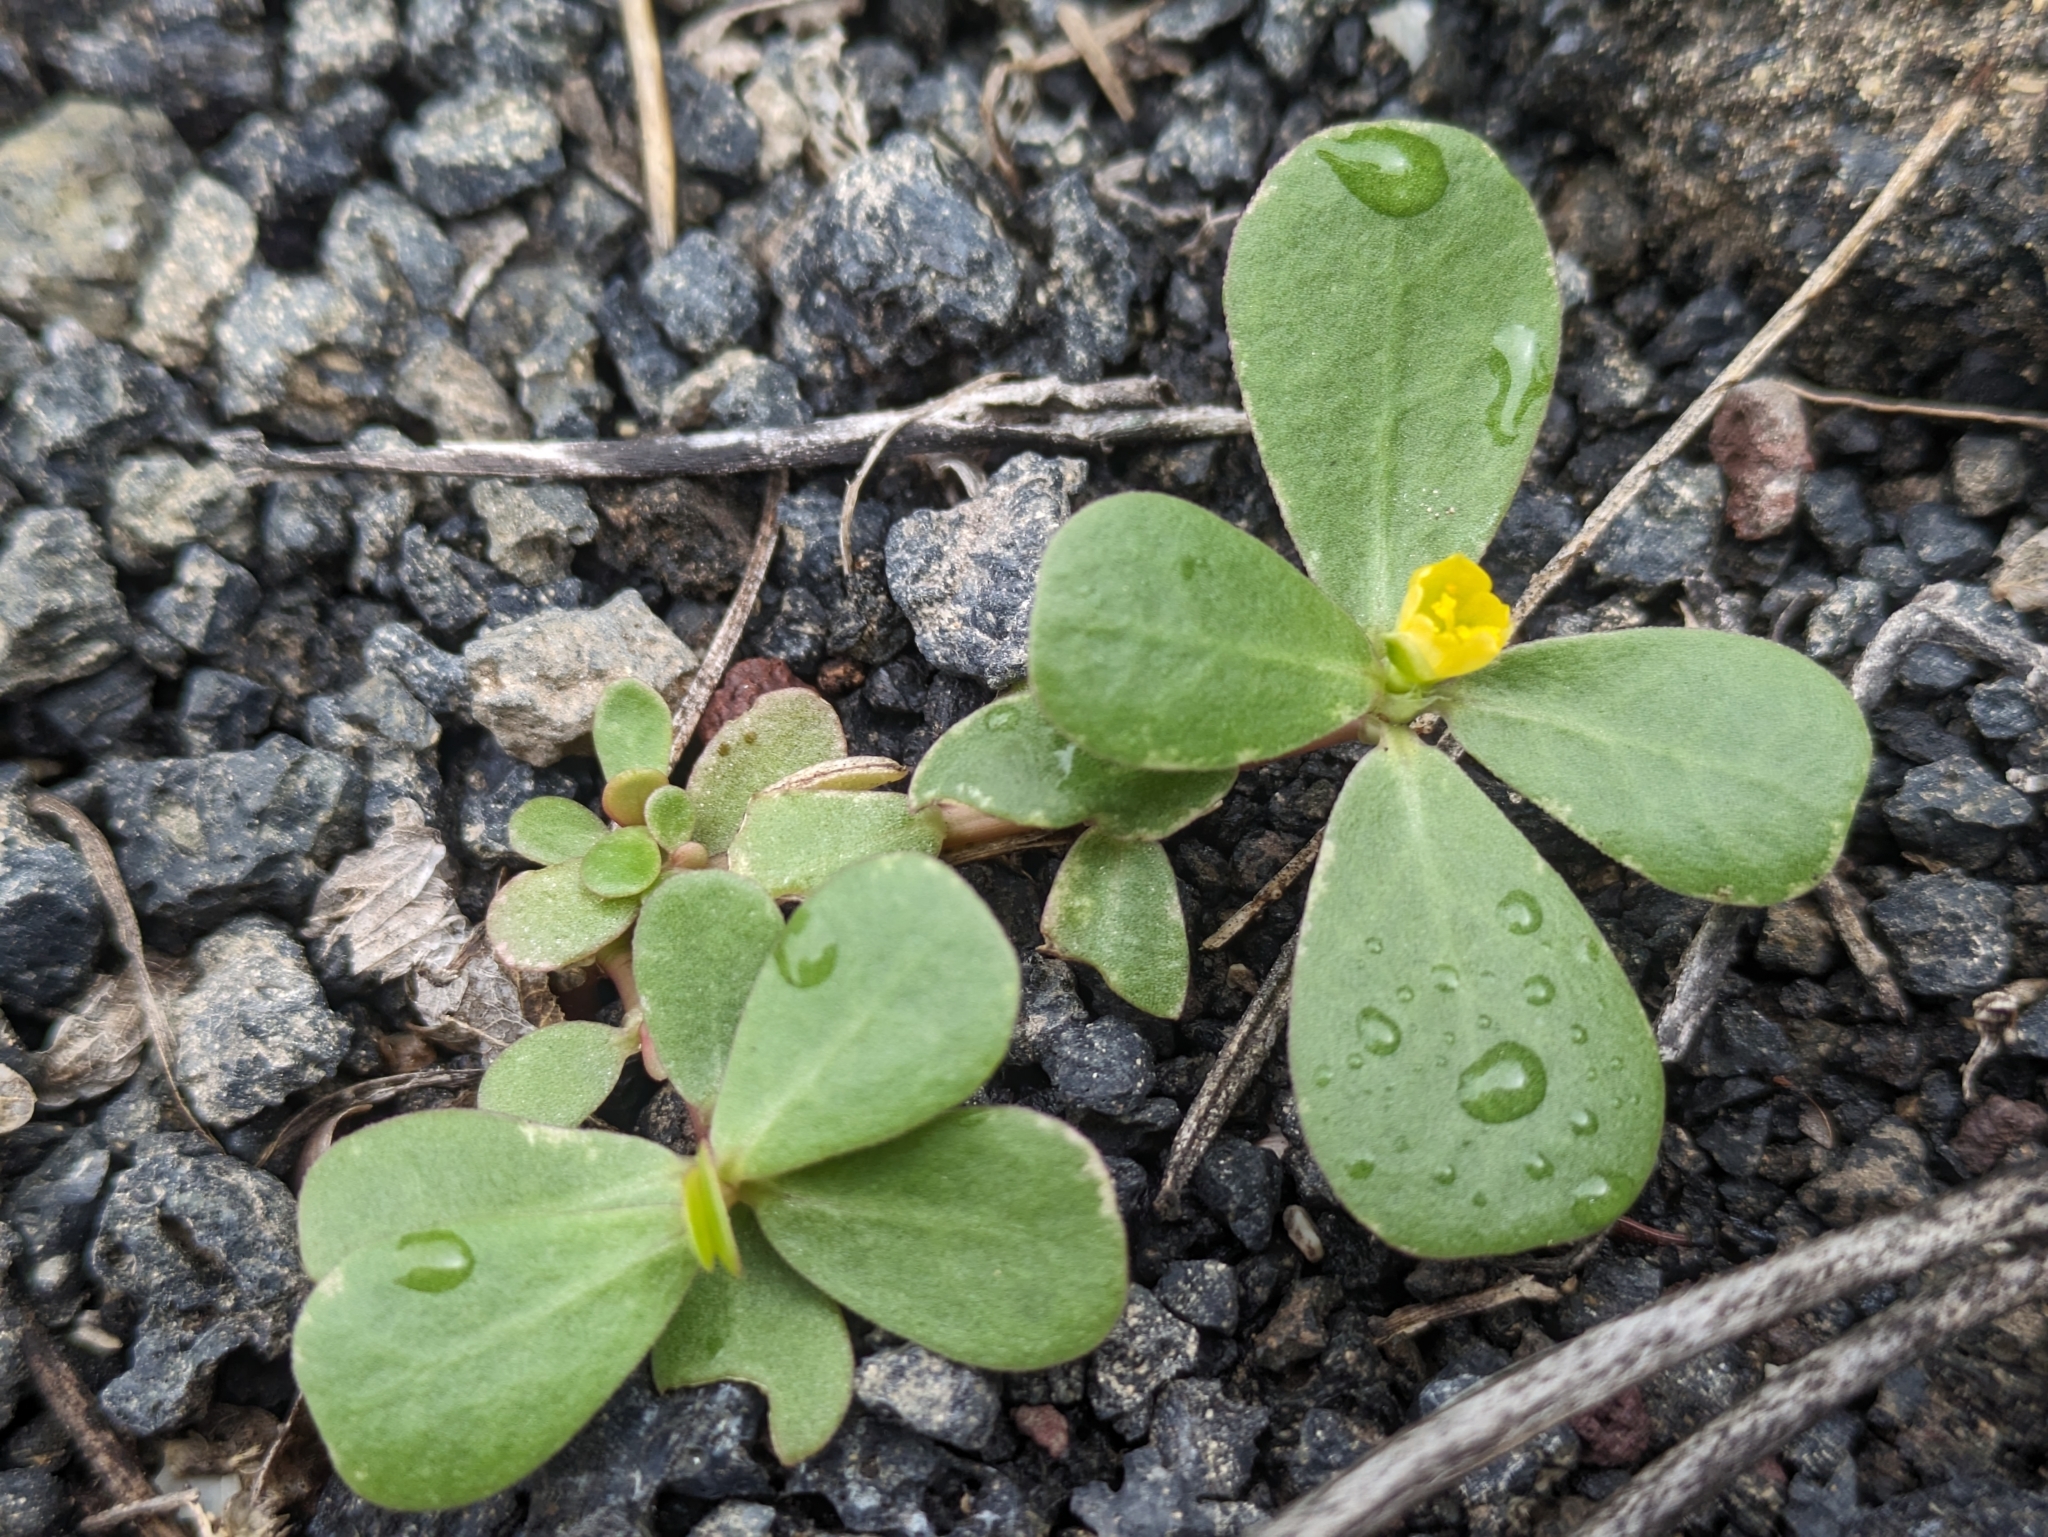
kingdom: Plantae
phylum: Tracheophyta
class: Magnoliopsida
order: Caryophyllales
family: Portulacaceae
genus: Portulaca
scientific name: Portulaca oleracea
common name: Common purslane
